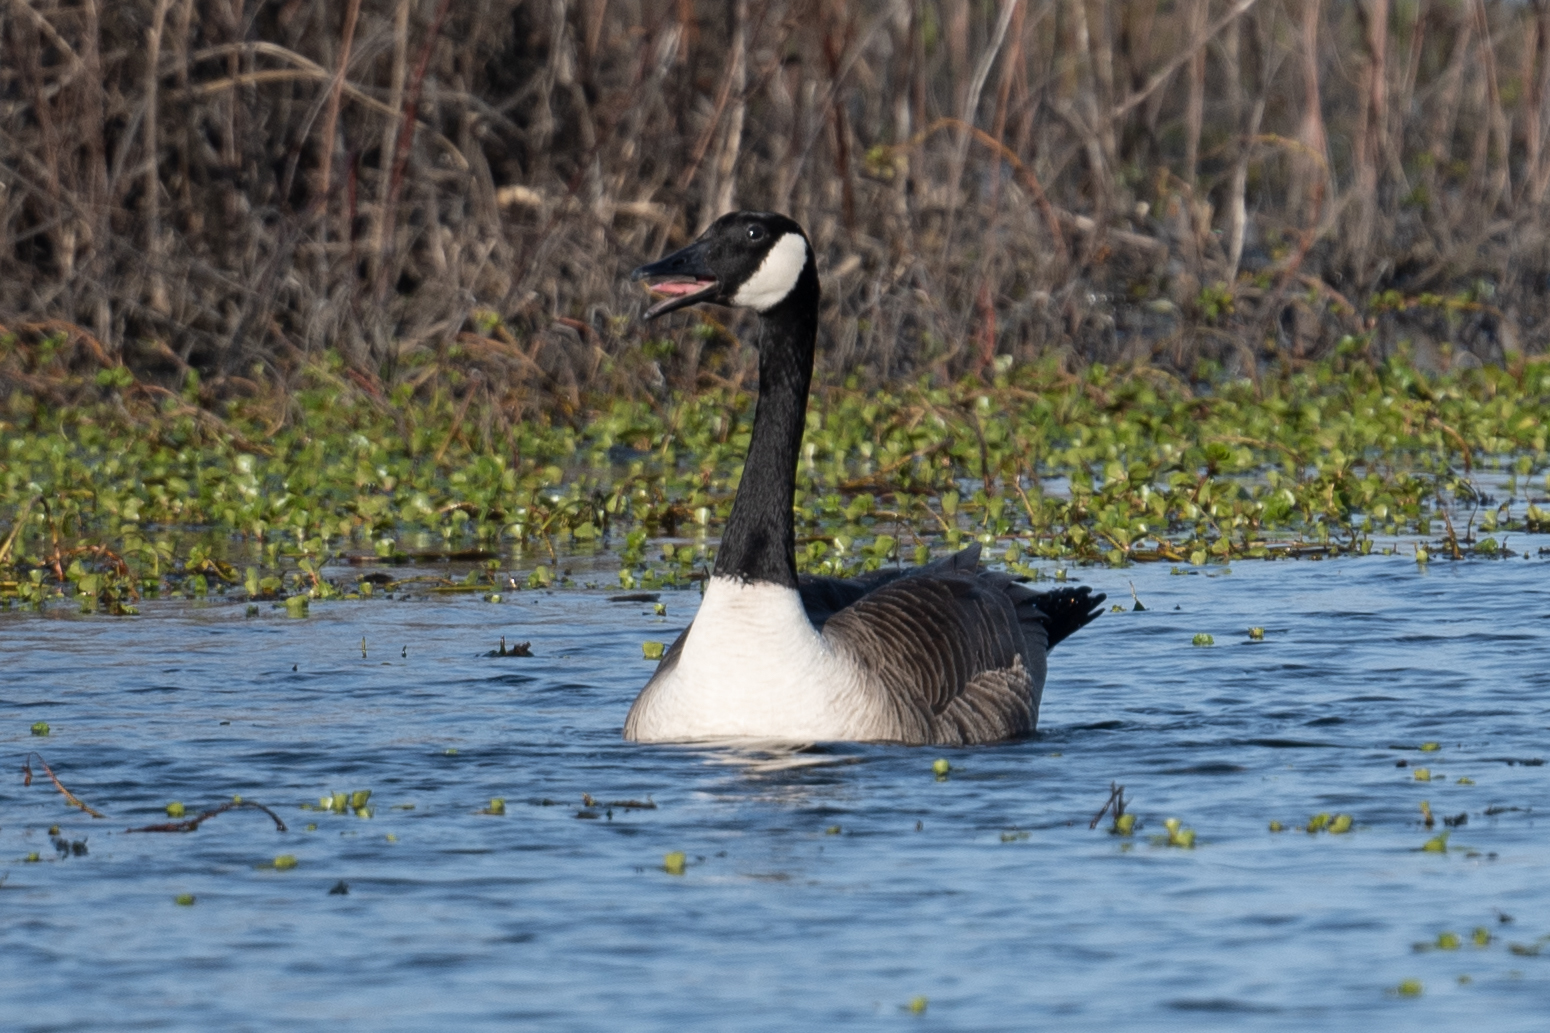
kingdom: Animalia
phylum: Chordata
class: Aves
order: Anseriformes
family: Anatidae
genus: Branta
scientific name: Branta canadensis
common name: Canada goose
